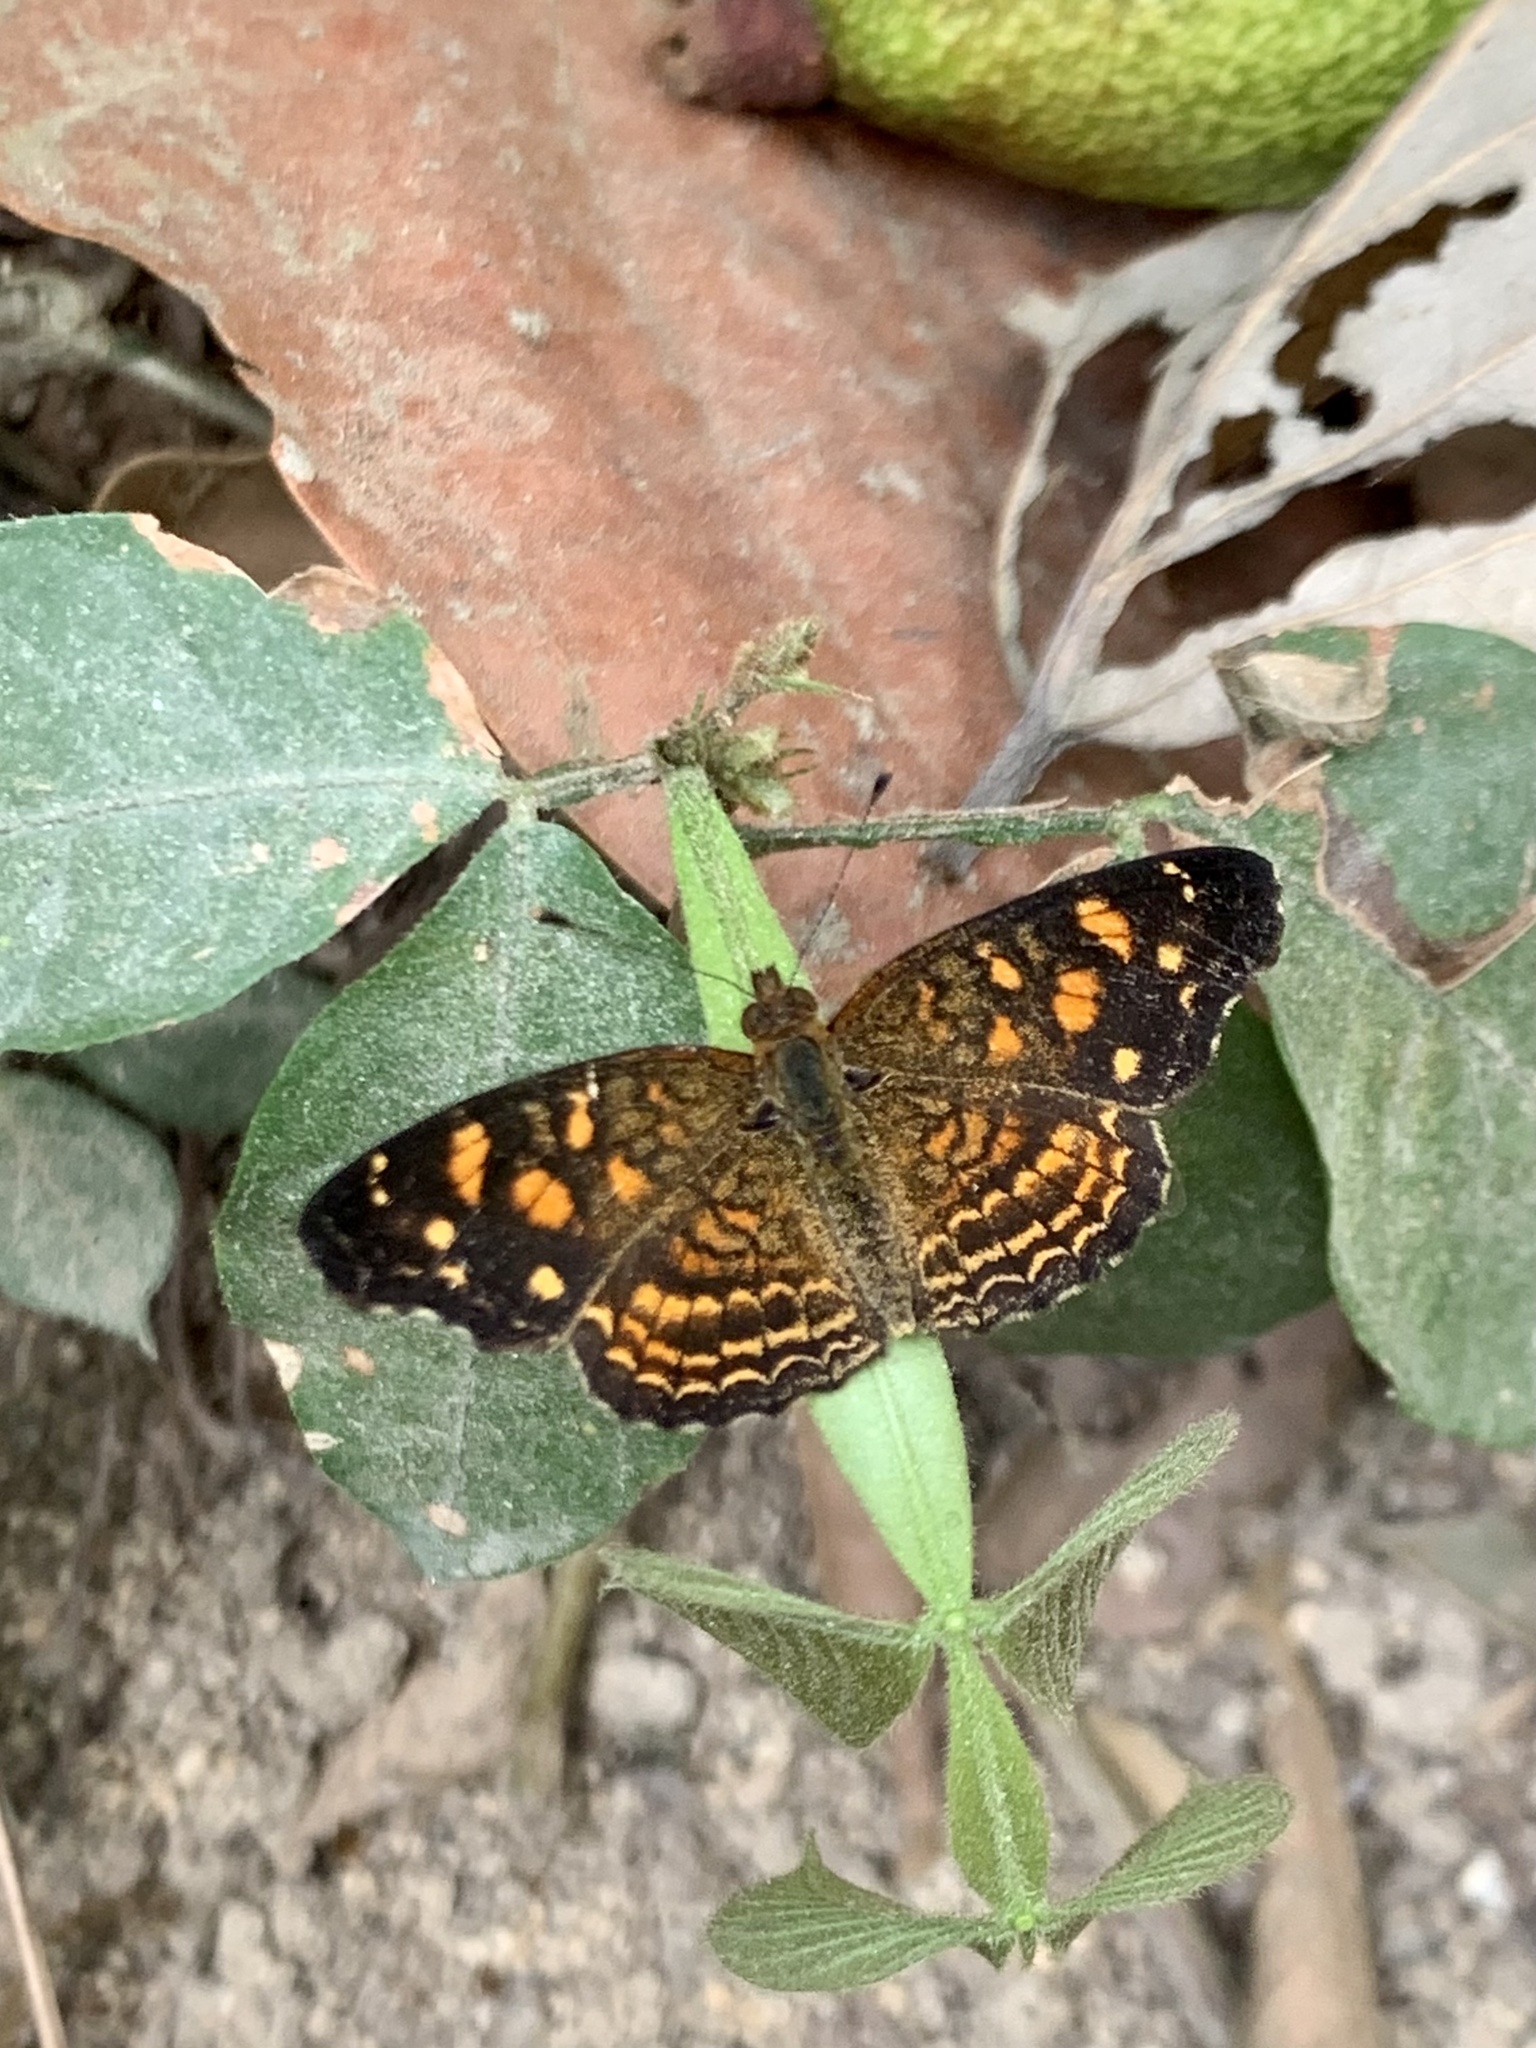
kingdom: Animalia
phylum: Arthropoda
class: Insecta
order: Lepidoptera
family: Nymphalidae
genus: Anthanassa
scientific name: Anthanassa acesas
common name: Cloudforest crescent
